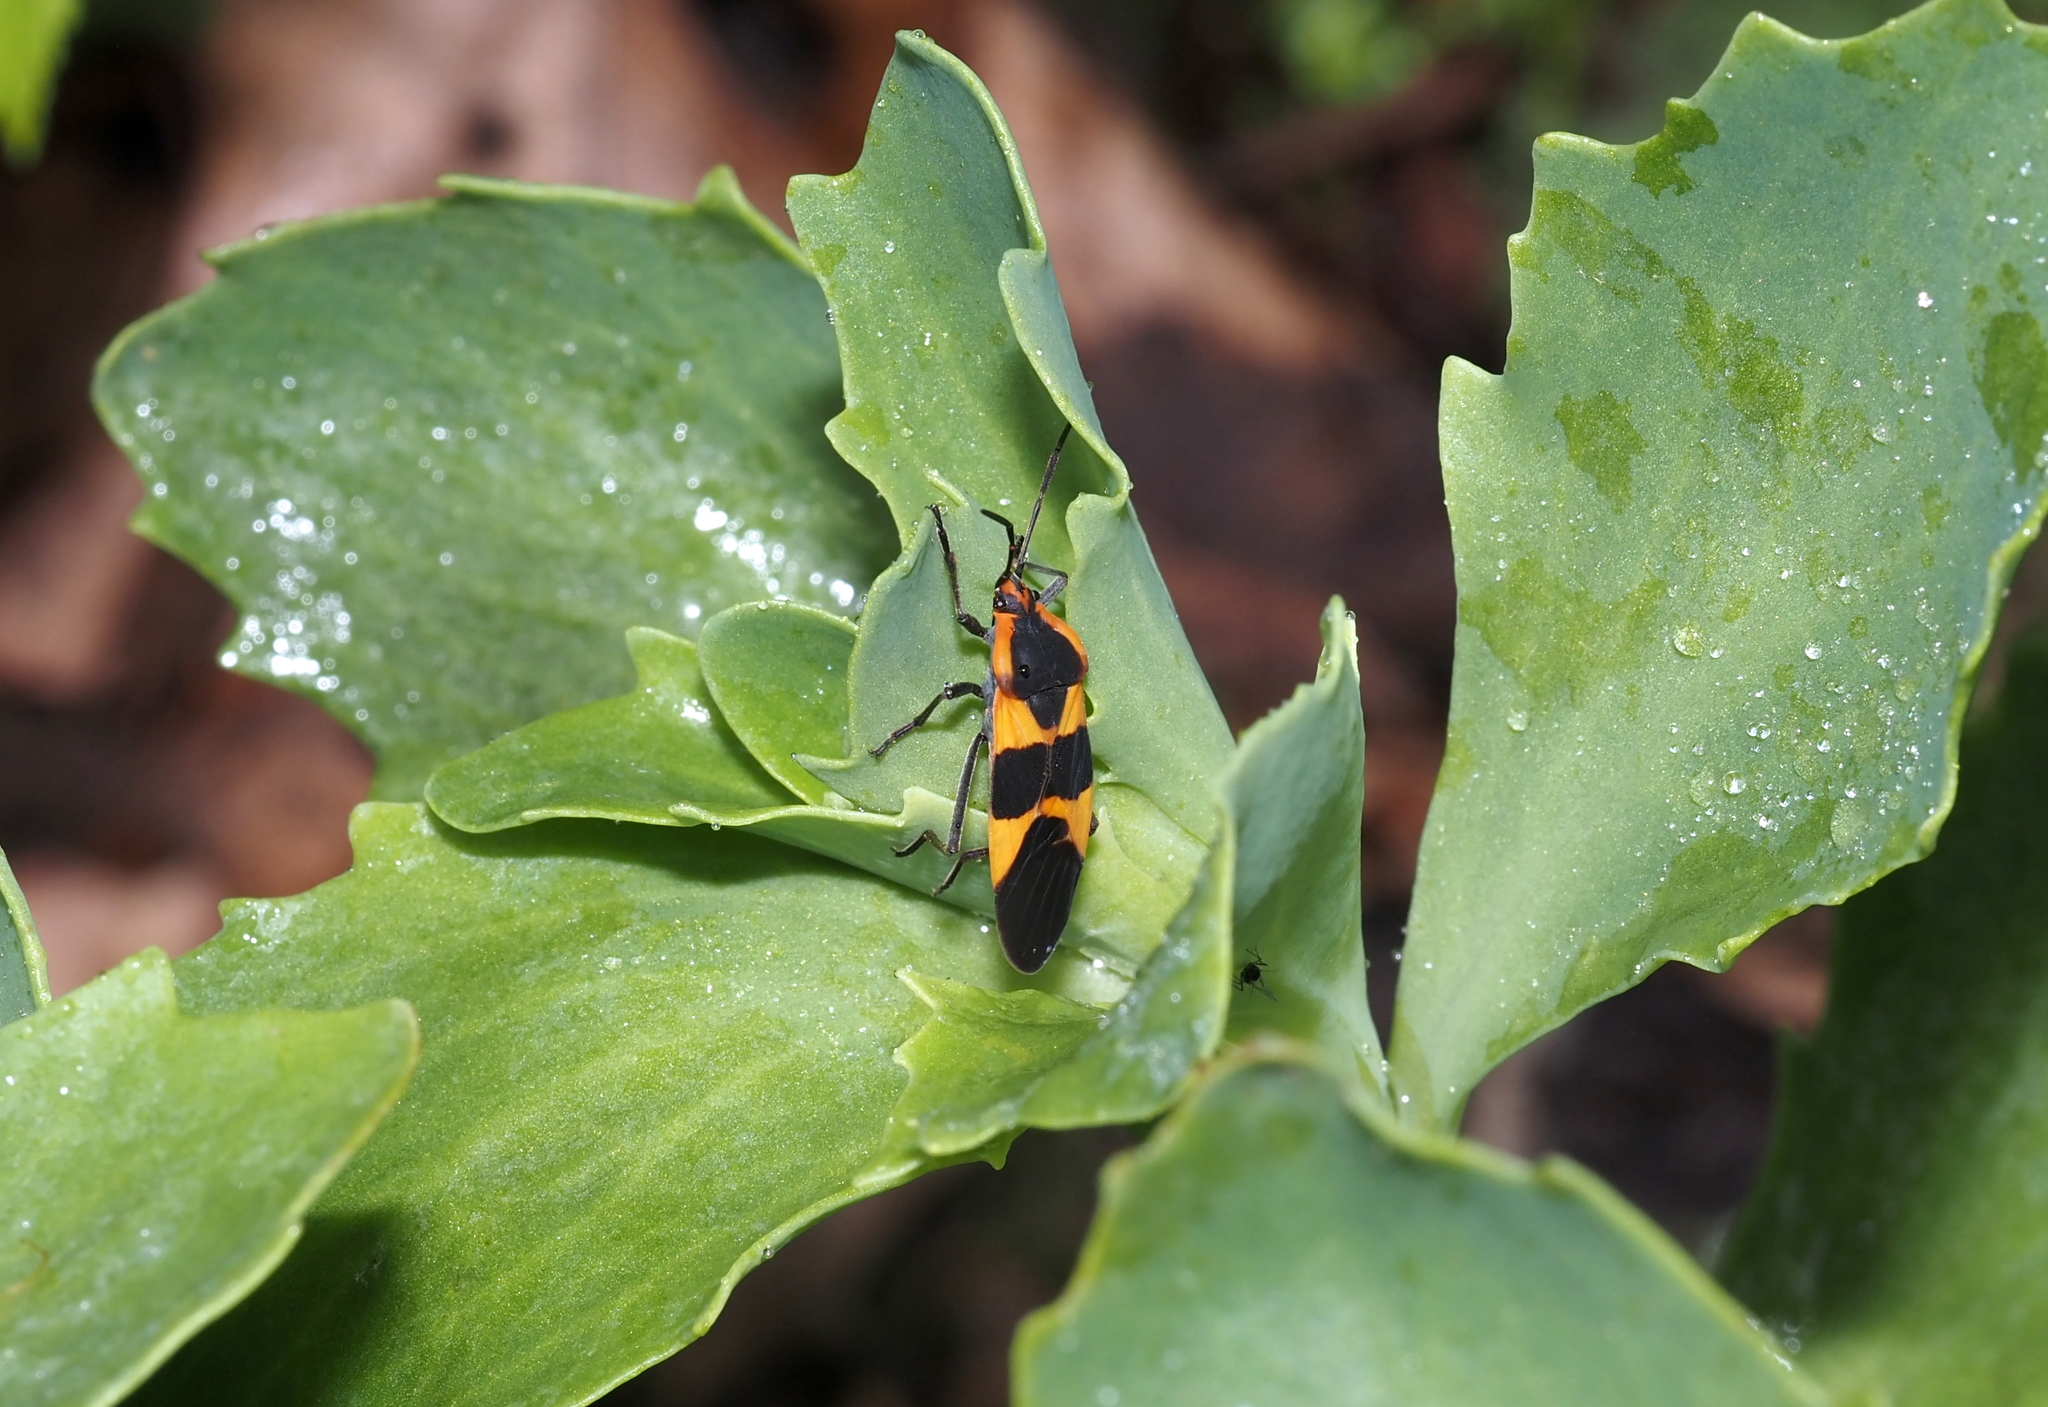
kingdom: Animalia
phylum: Arthropoda
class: Insecta
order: Hemiptera
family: Lygaeidae
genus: Oncopeltus
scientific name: Oncopeltus fasciatus
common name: Large milkweed bug
